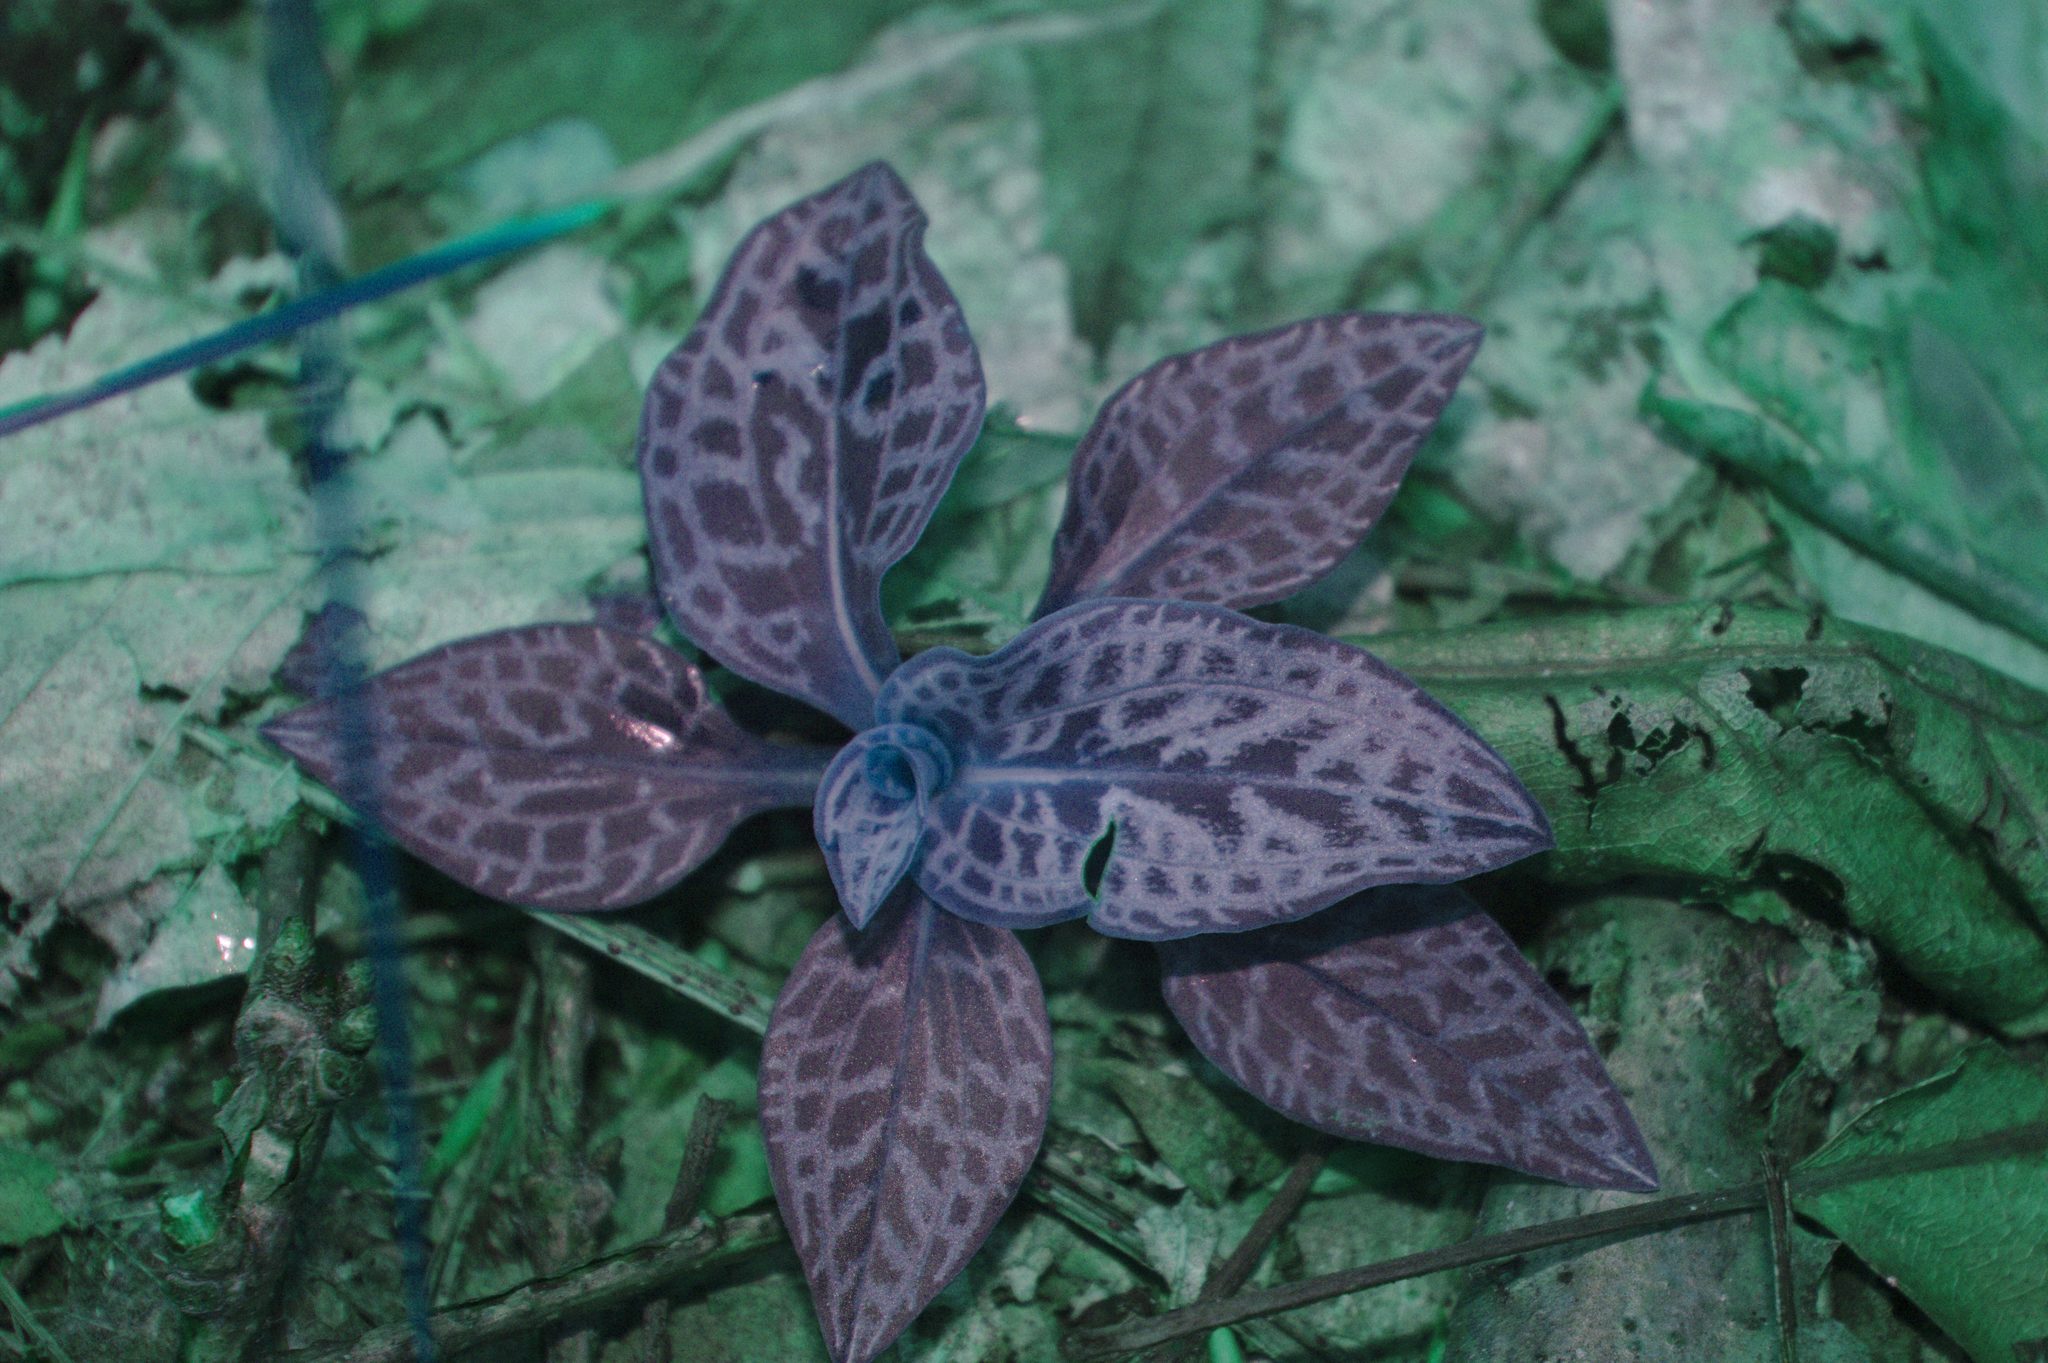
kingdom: Plantae
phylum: Tracheophyta
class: Liliopsida
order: Asparagales
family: Orchidaceae
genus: Goodyera
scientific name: Goodyera tesselata
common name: Checkered rattlesnake-plantain
